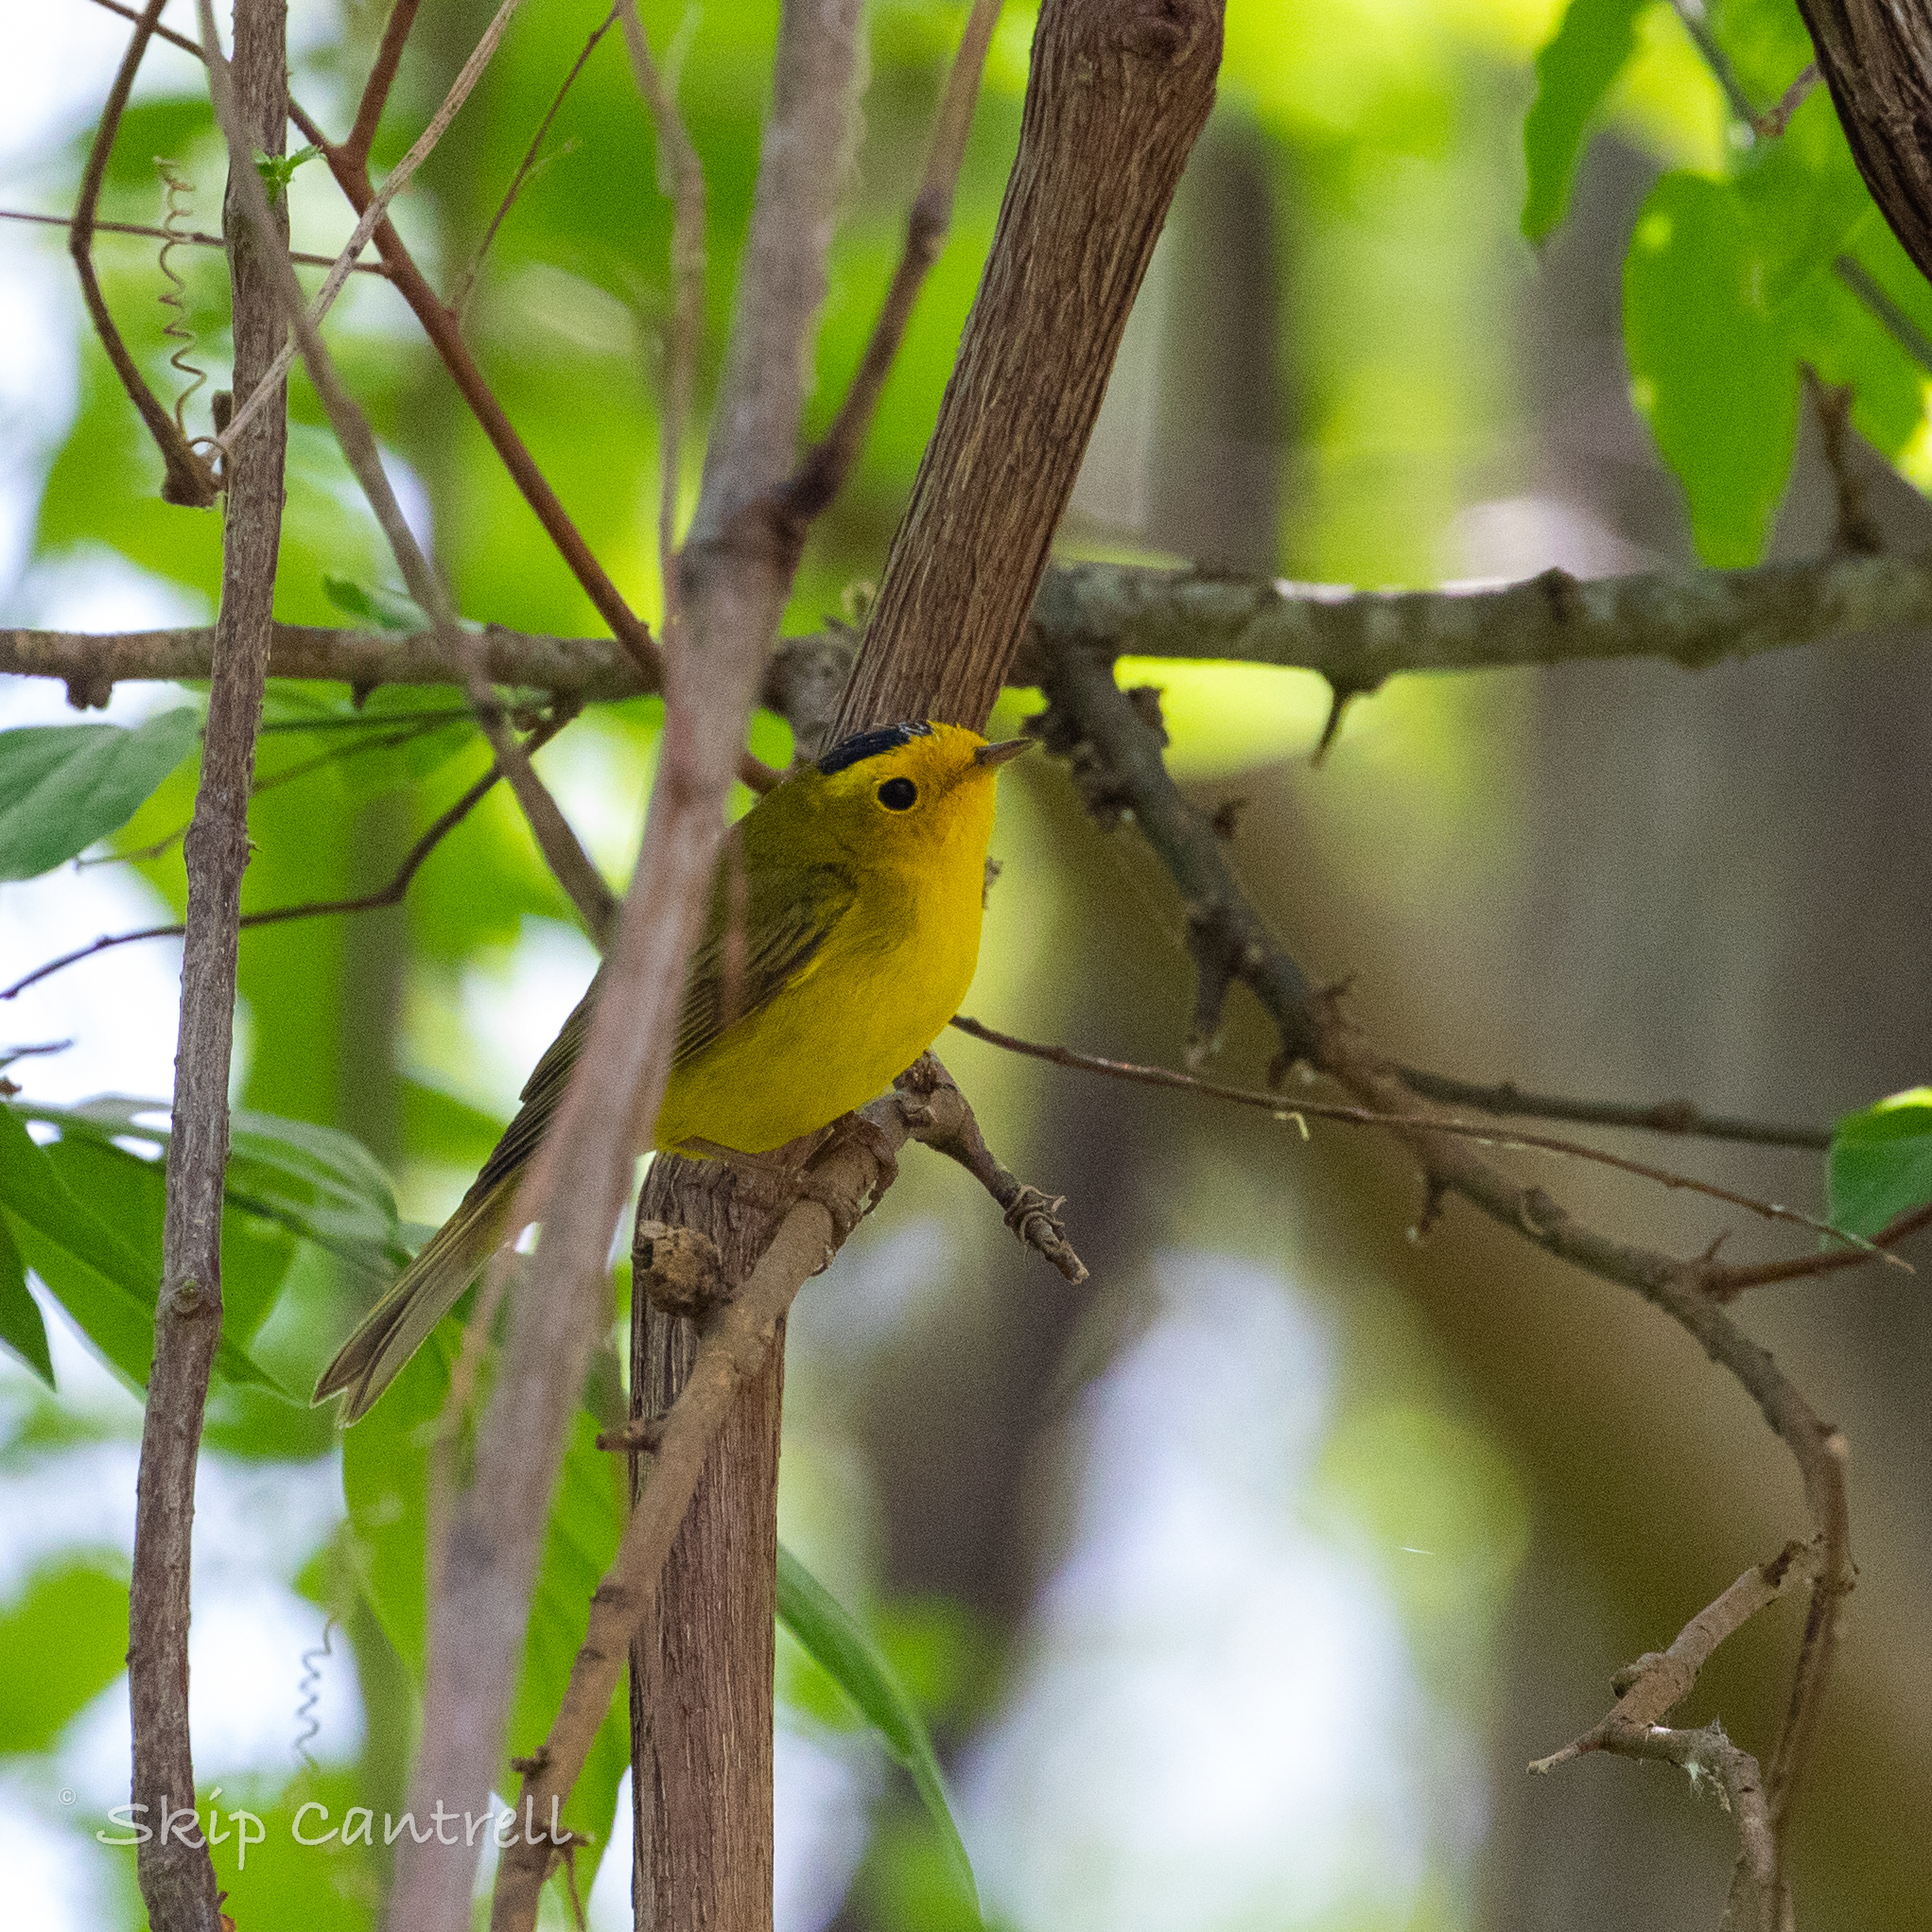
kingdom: Animalia
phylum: Chordata
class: Aves
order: Passeriformes
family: Parulidae
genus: Cardellina
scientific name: Cardellina pusilla
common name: Wilson's warbler
